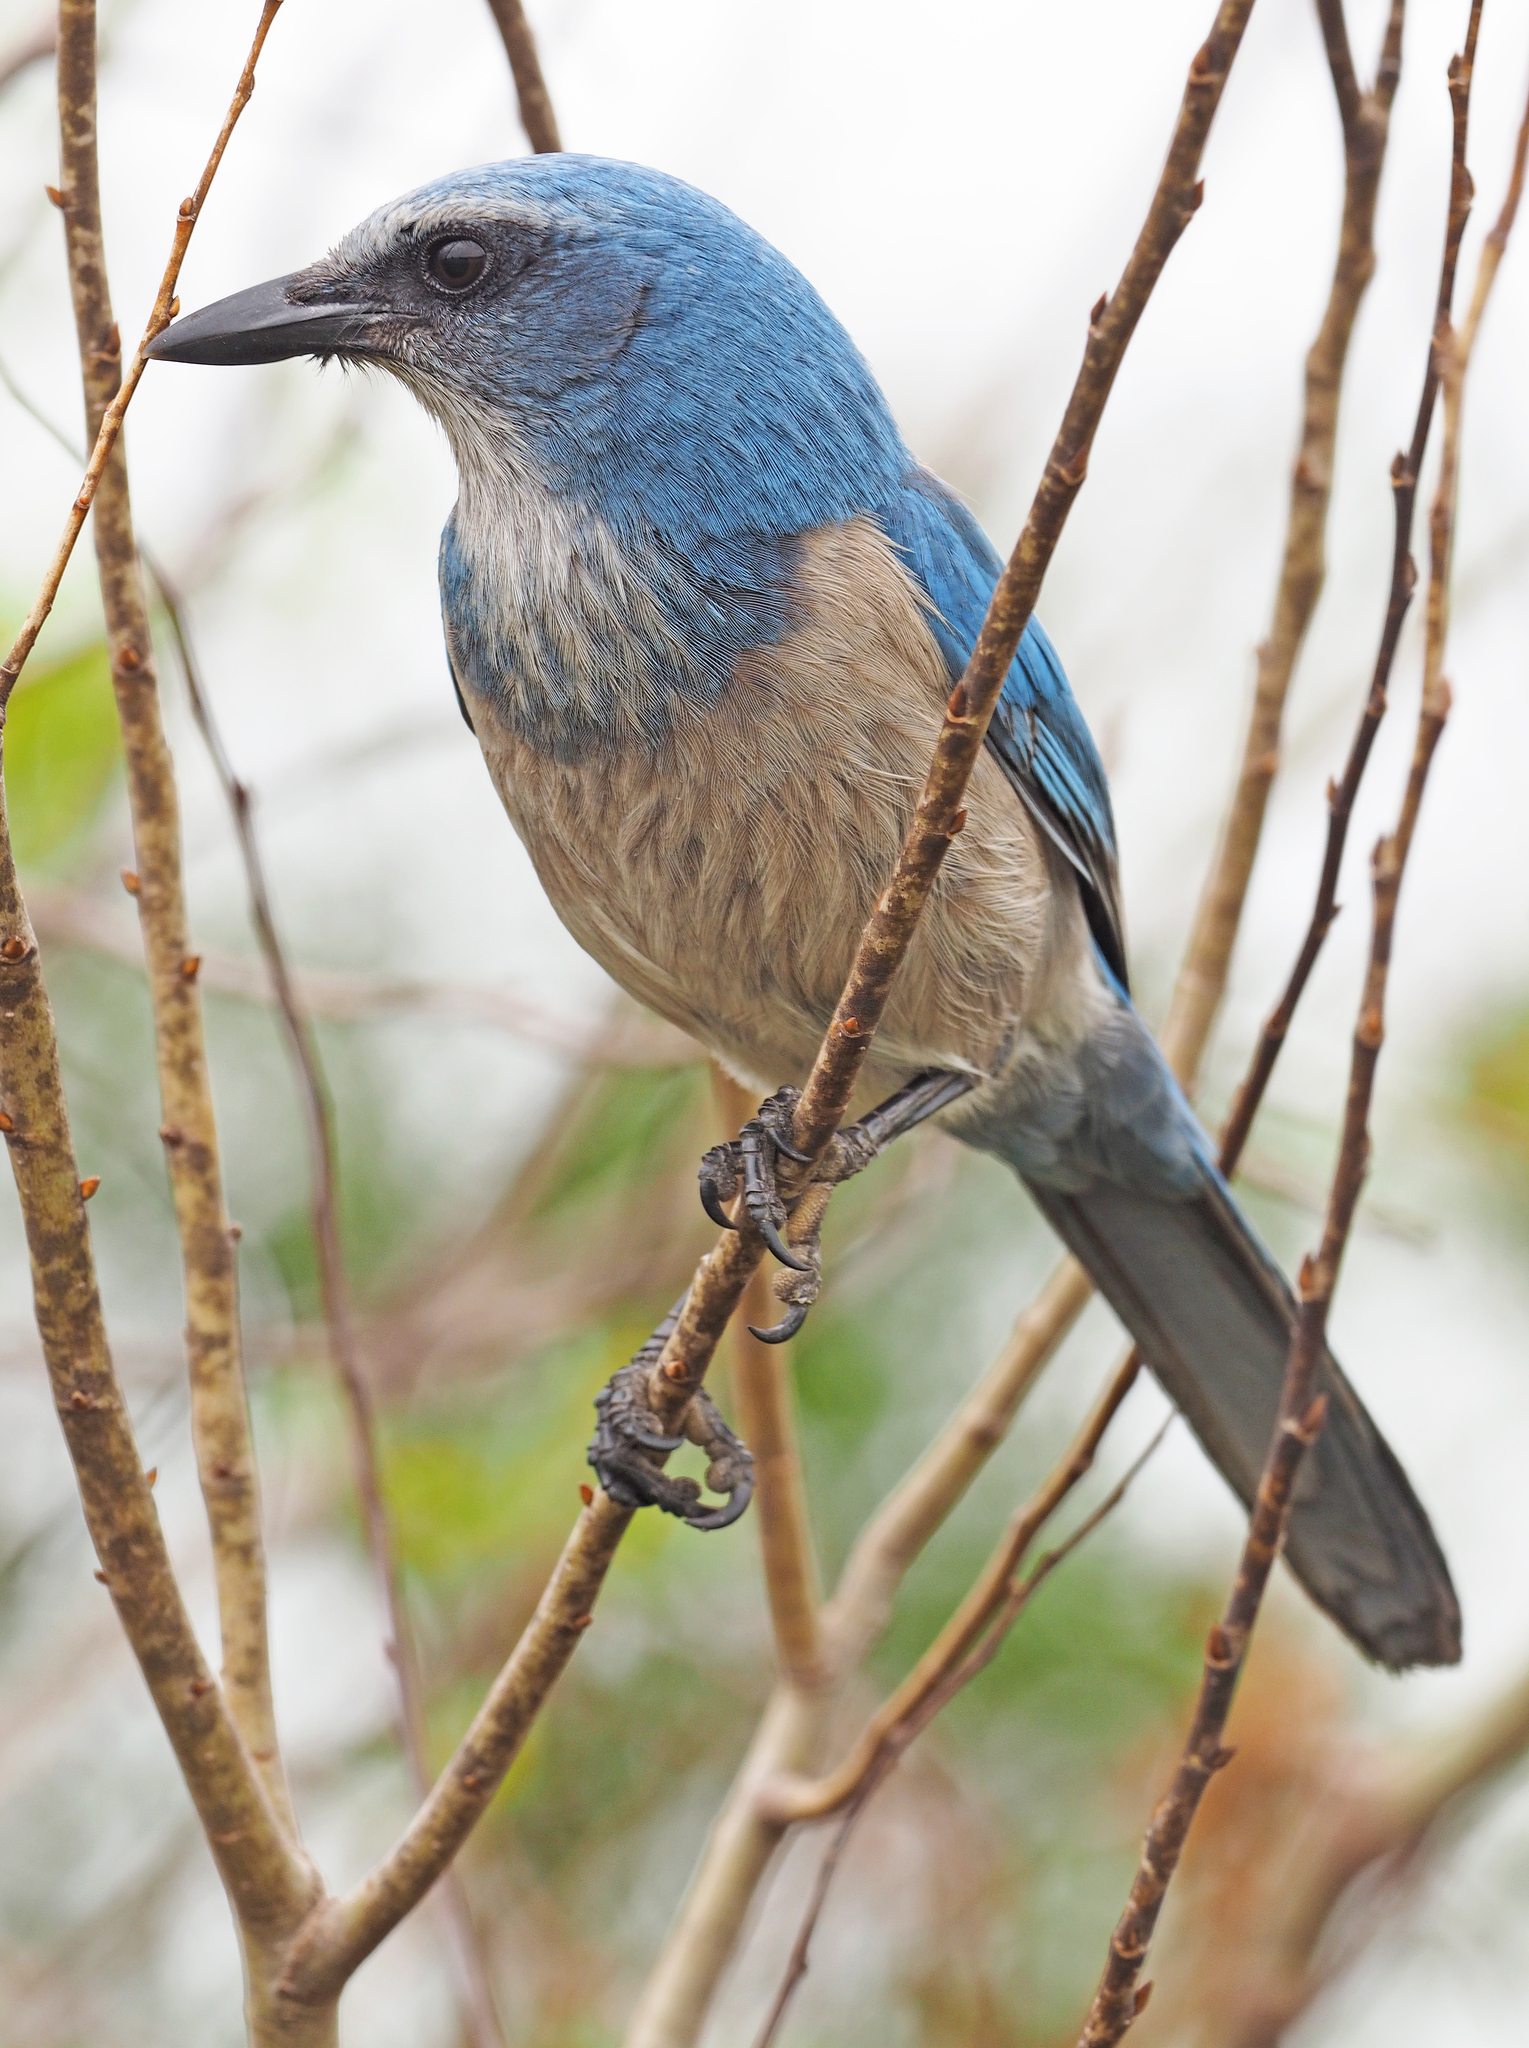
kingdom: Animalia
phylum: Chordata
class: Aves
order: Passeriformes
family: Corvidae
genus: Aphelocoma
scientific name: Aphelocoma coerulescens
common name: Florida scrub jay
